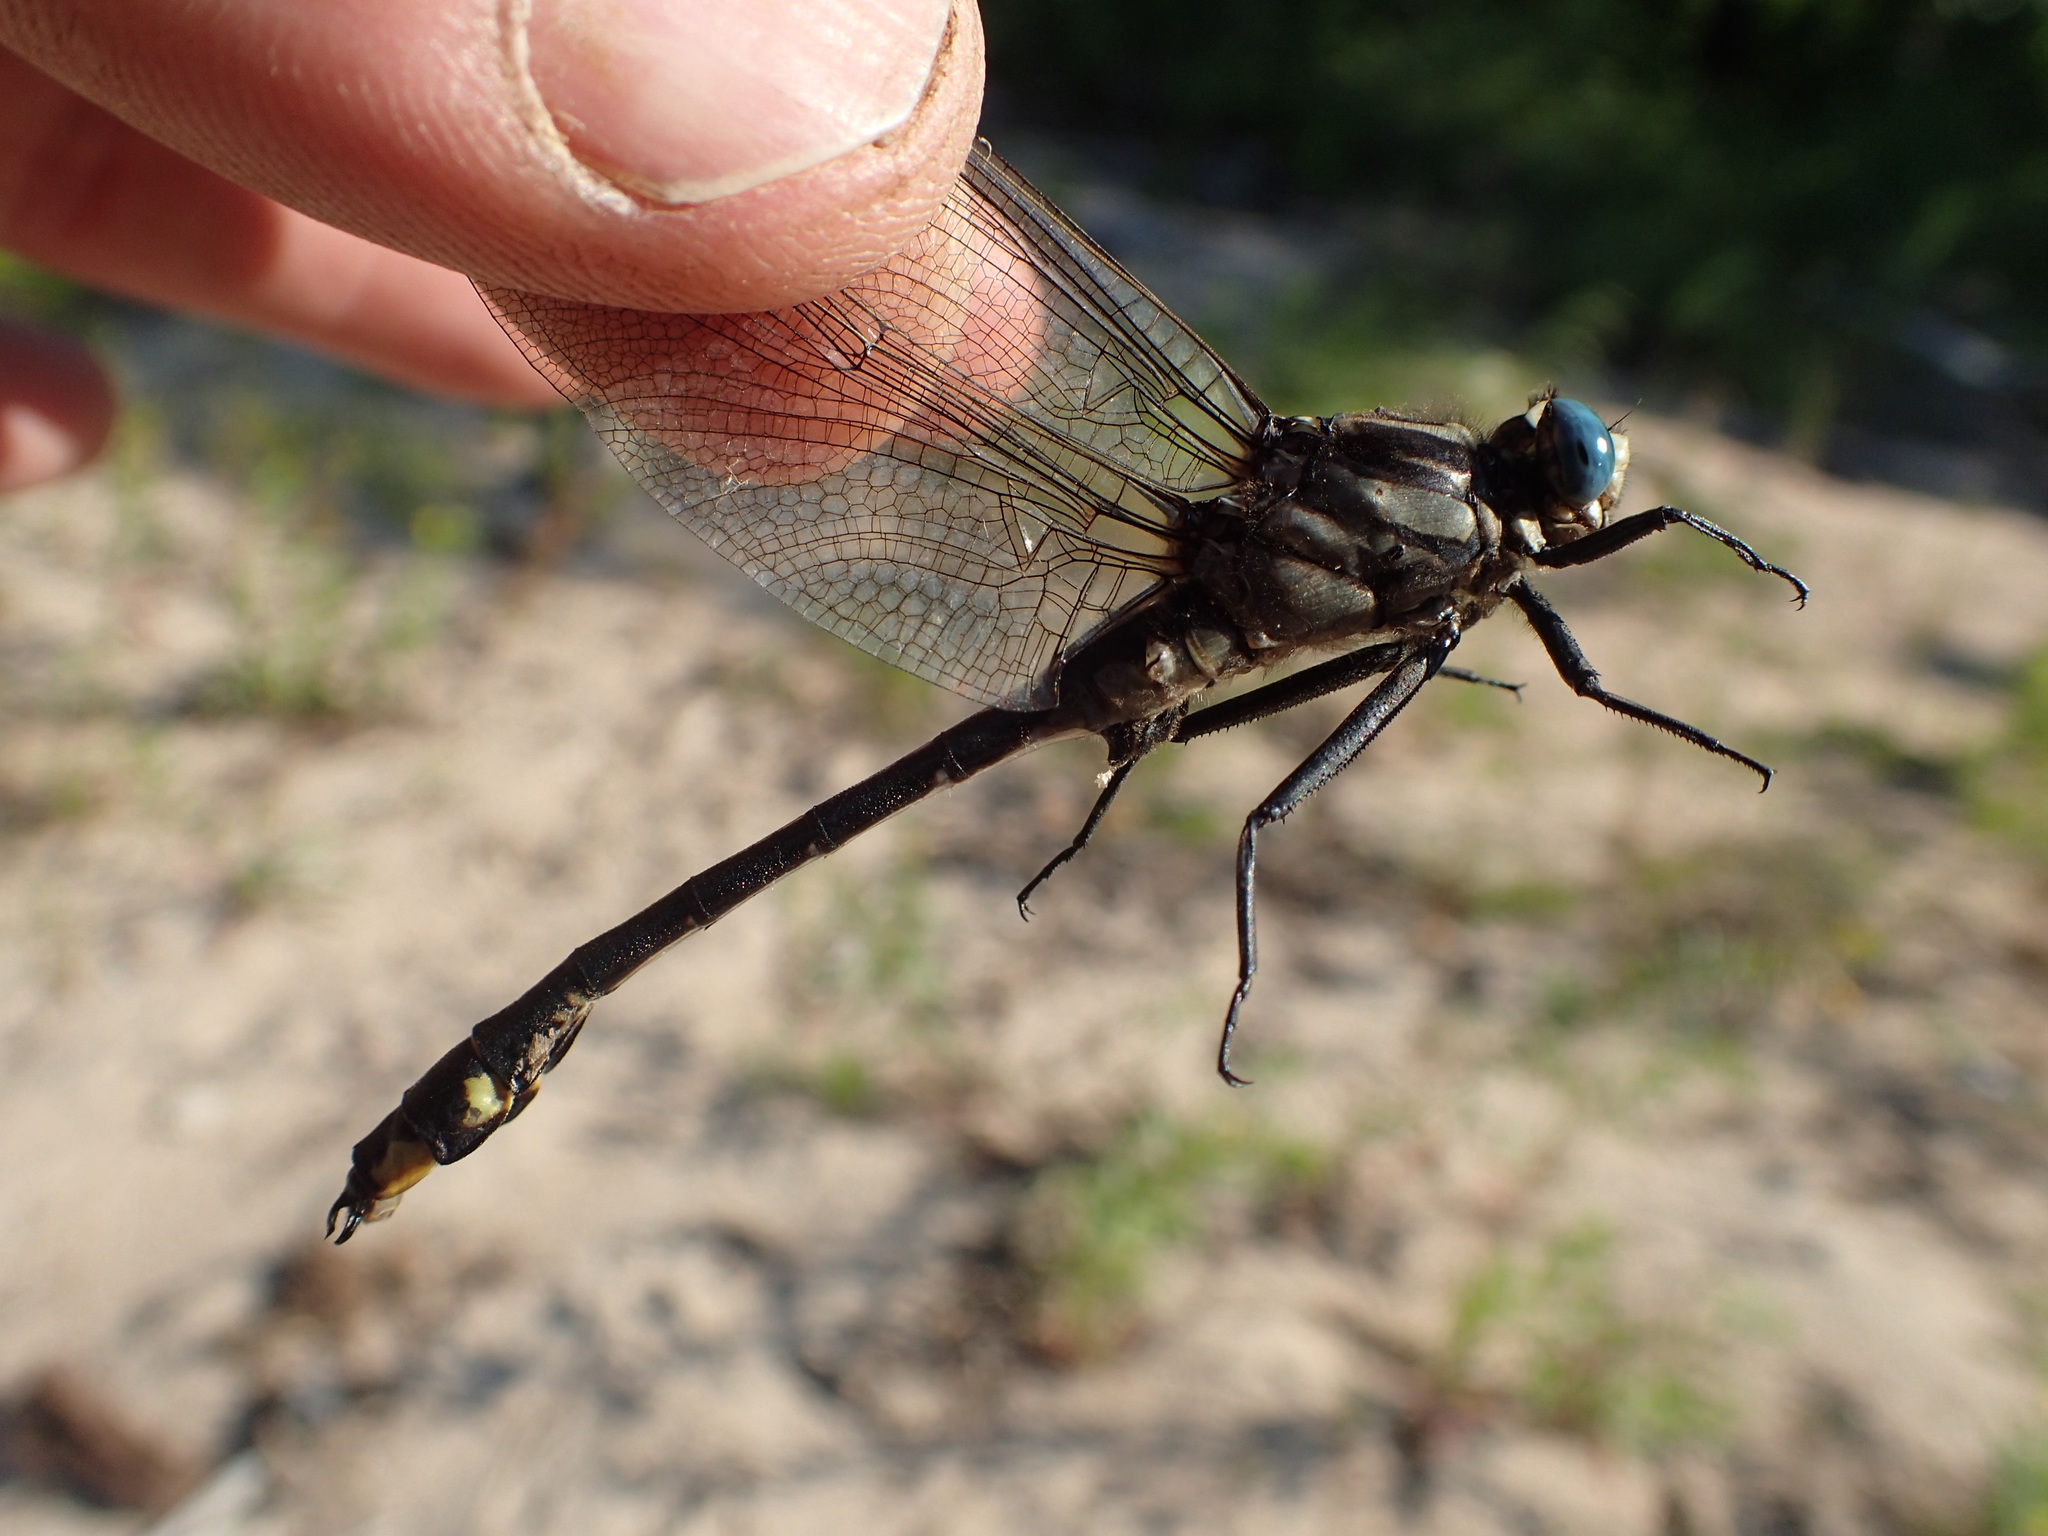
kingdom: Animalia
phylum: Arthropoda
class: Insecta
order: Odonata
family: Gomphidae
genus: Gomphurus
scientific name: Gomphurus fraternus
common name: Midland clubtail
